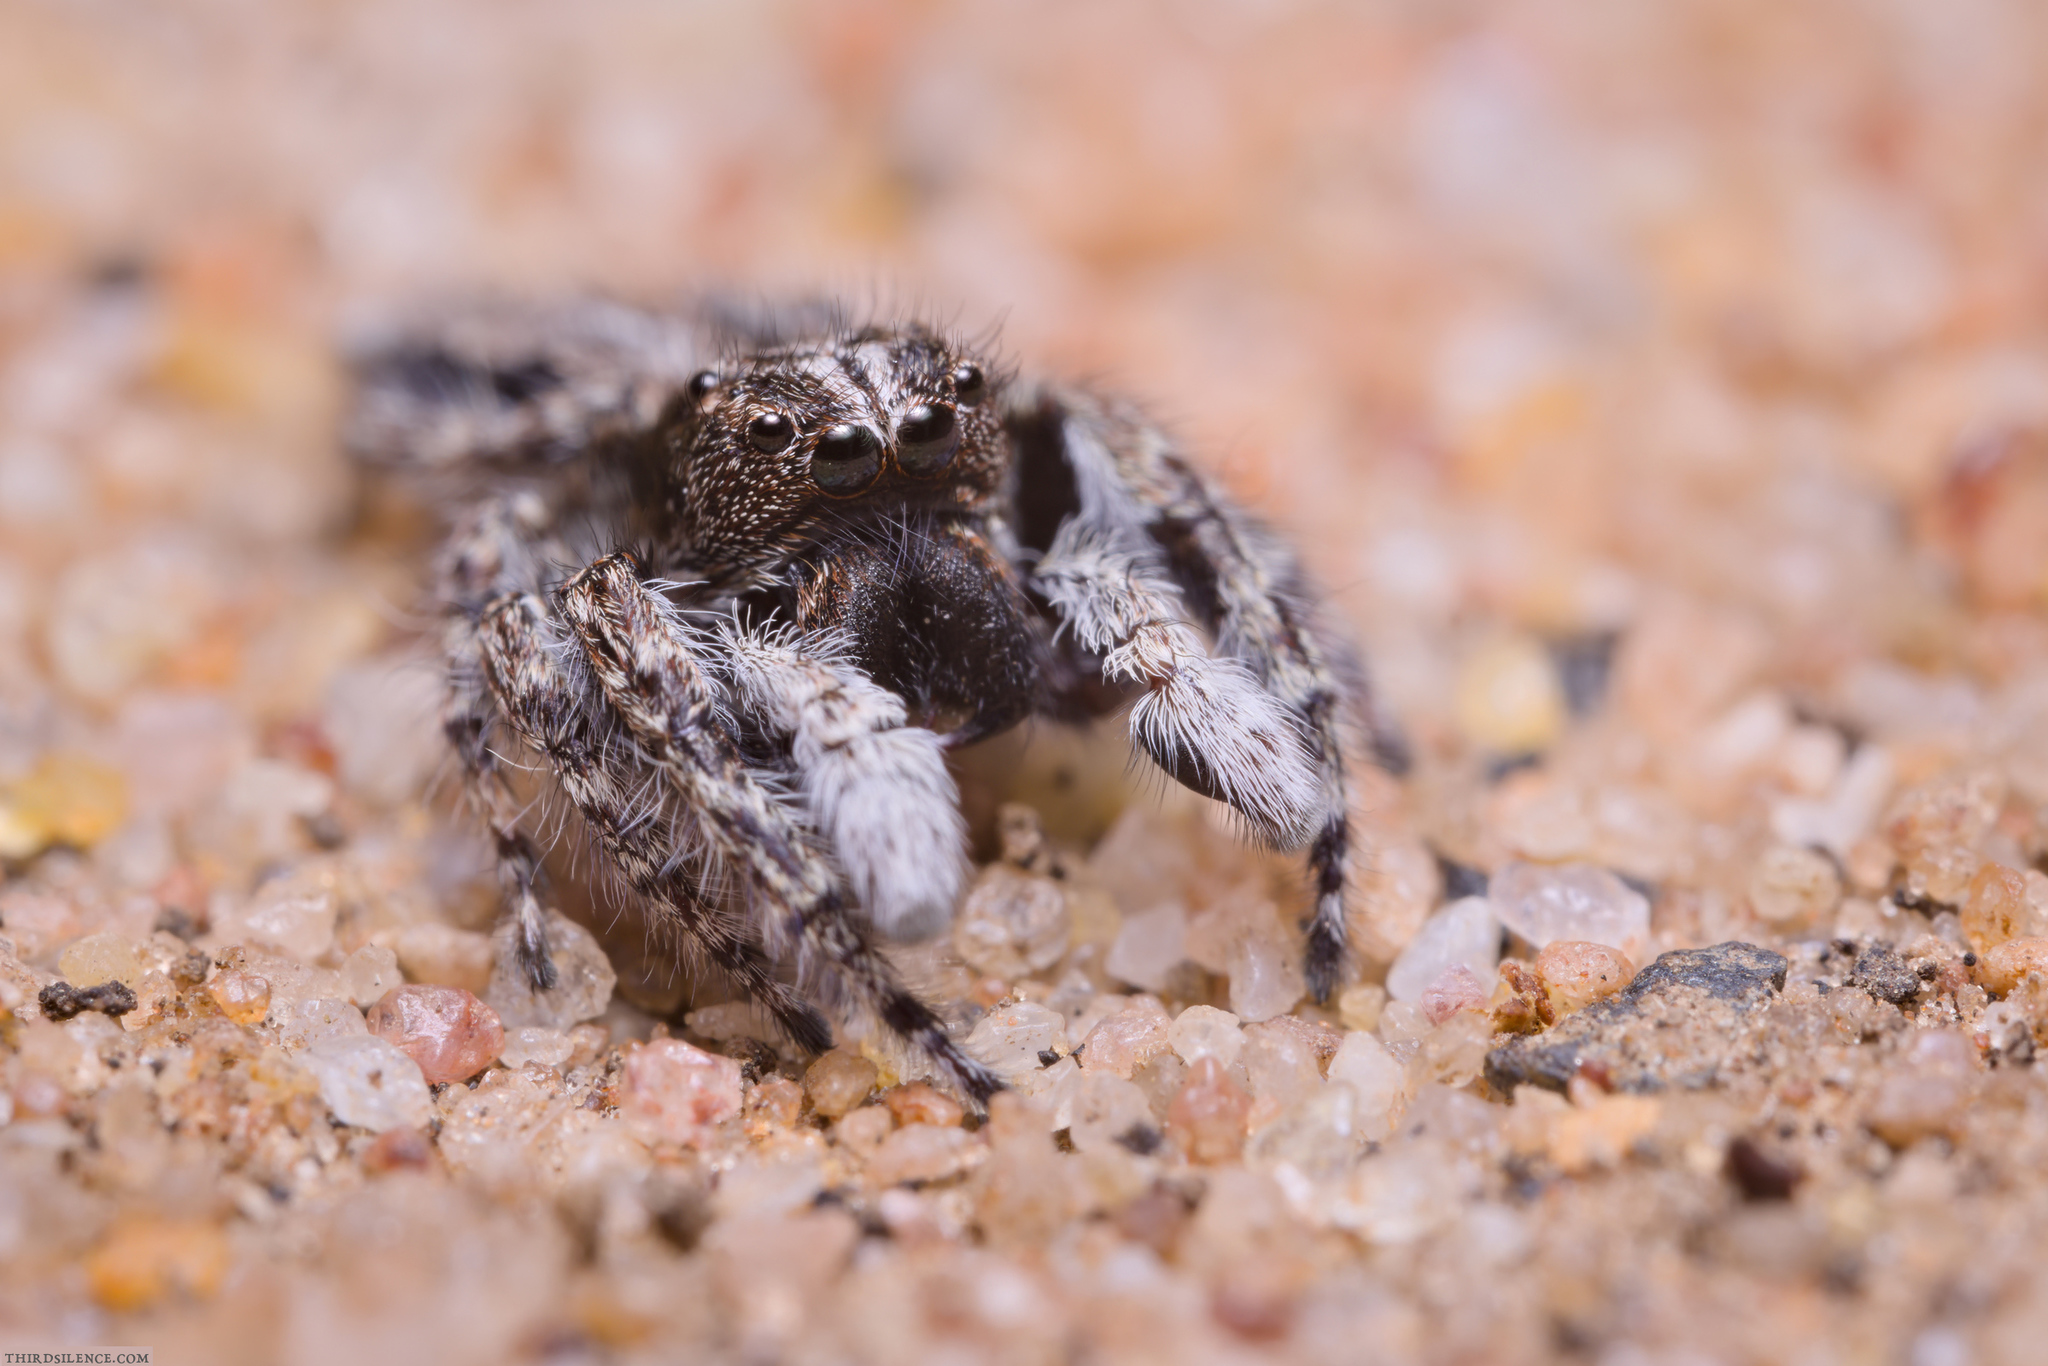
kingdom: Animalia
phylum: Arthropoda
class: Arachnida
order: Araneae
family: Salticidae
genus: Clynotis
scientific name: Clynotis severus
